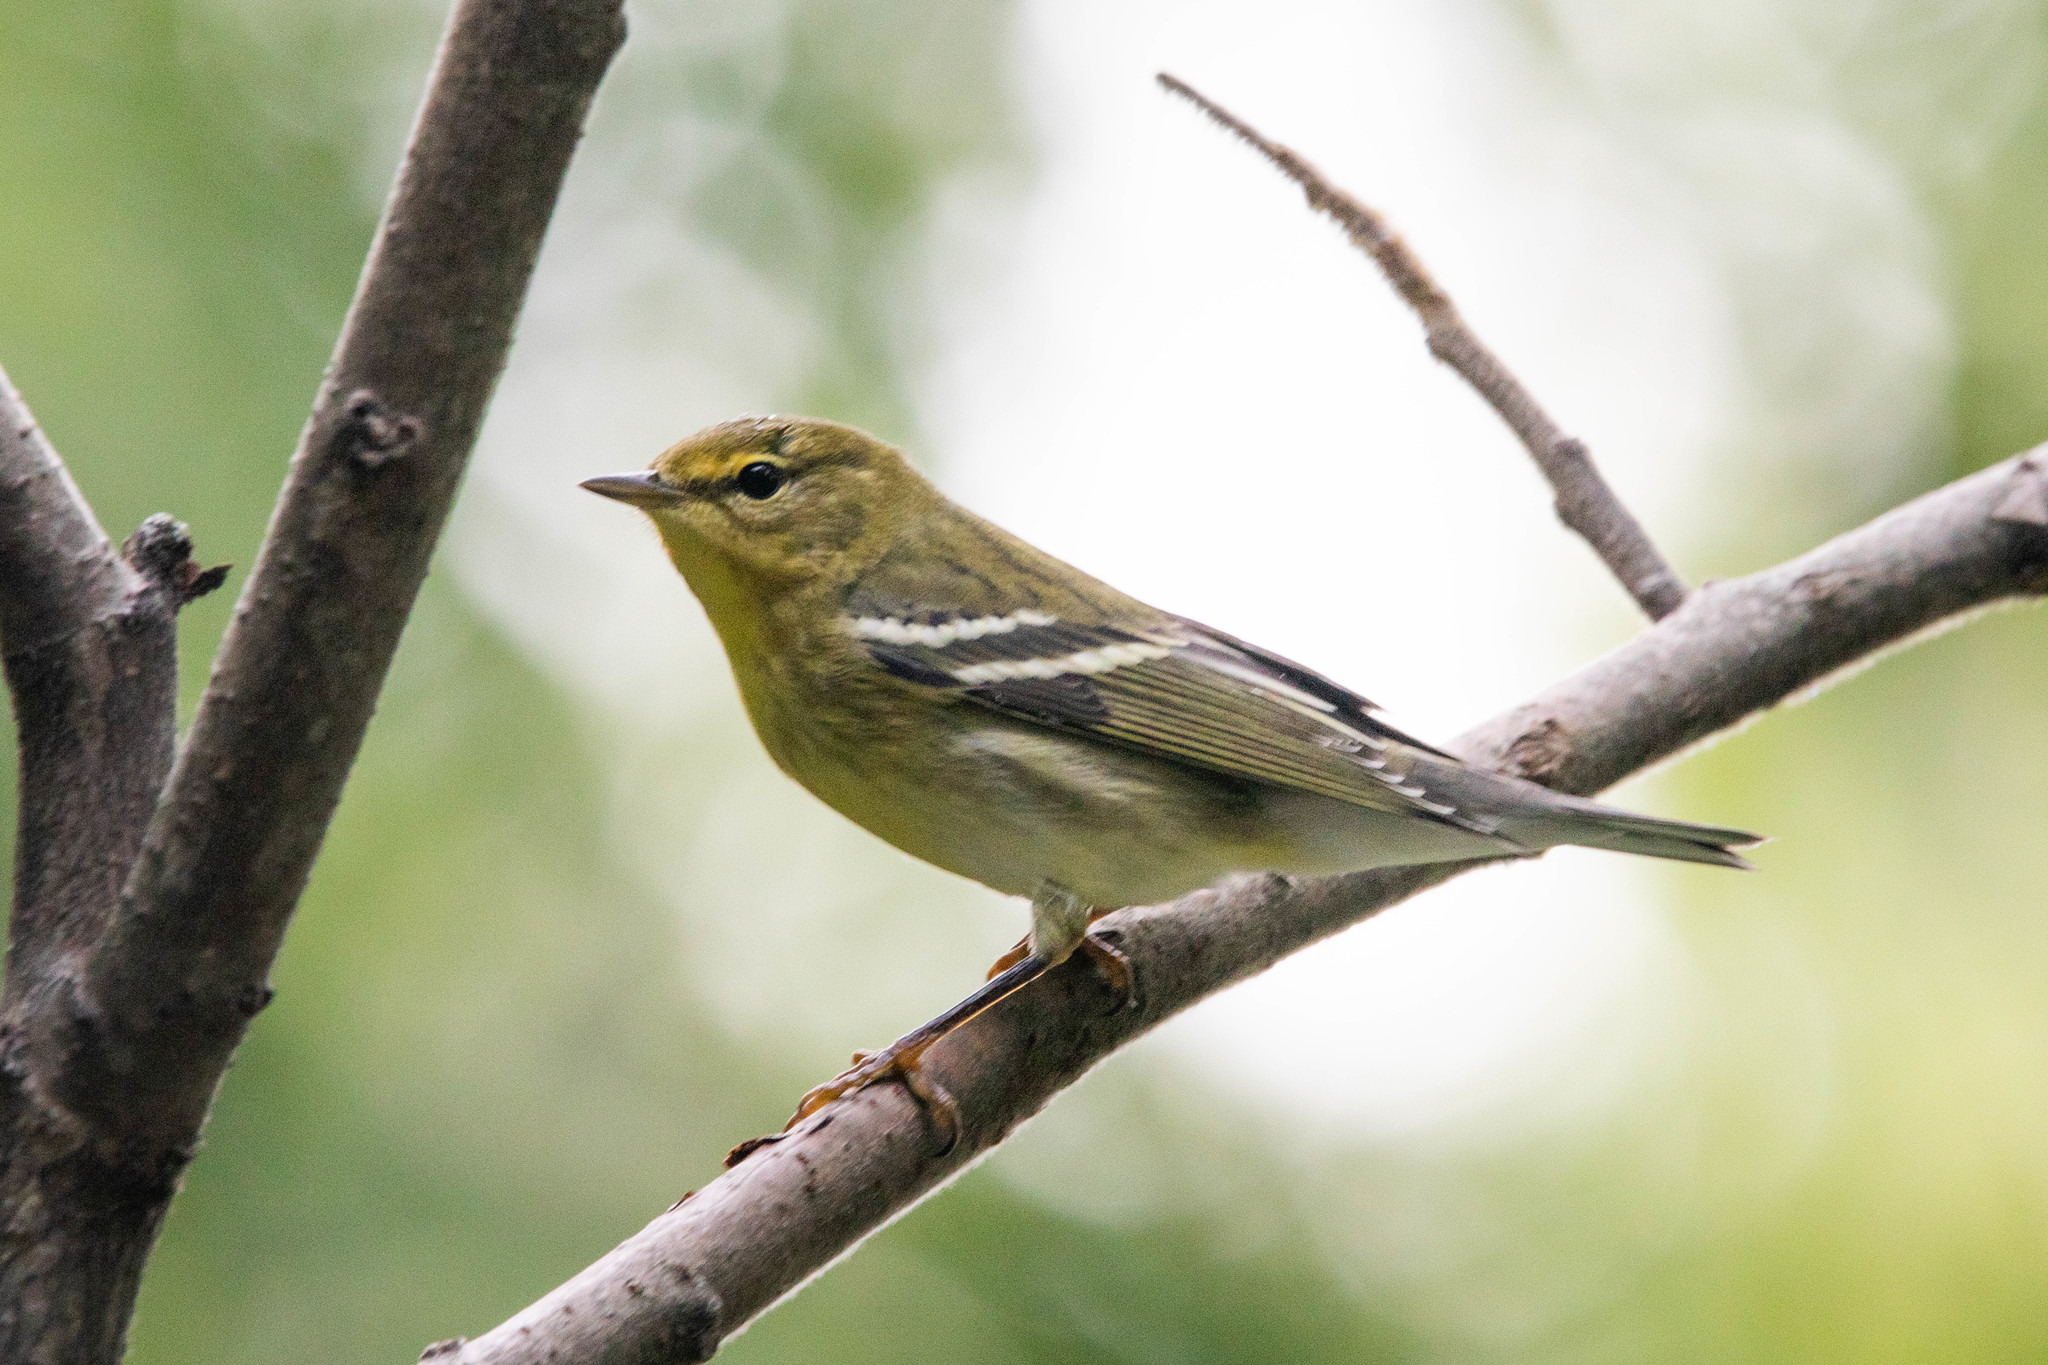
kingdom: Animalia
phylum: Chordata
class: Aves
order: Passeriformes
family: Parulidae
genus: Setophaga
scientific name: Setophaga striata
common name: Blackpoll warbler
